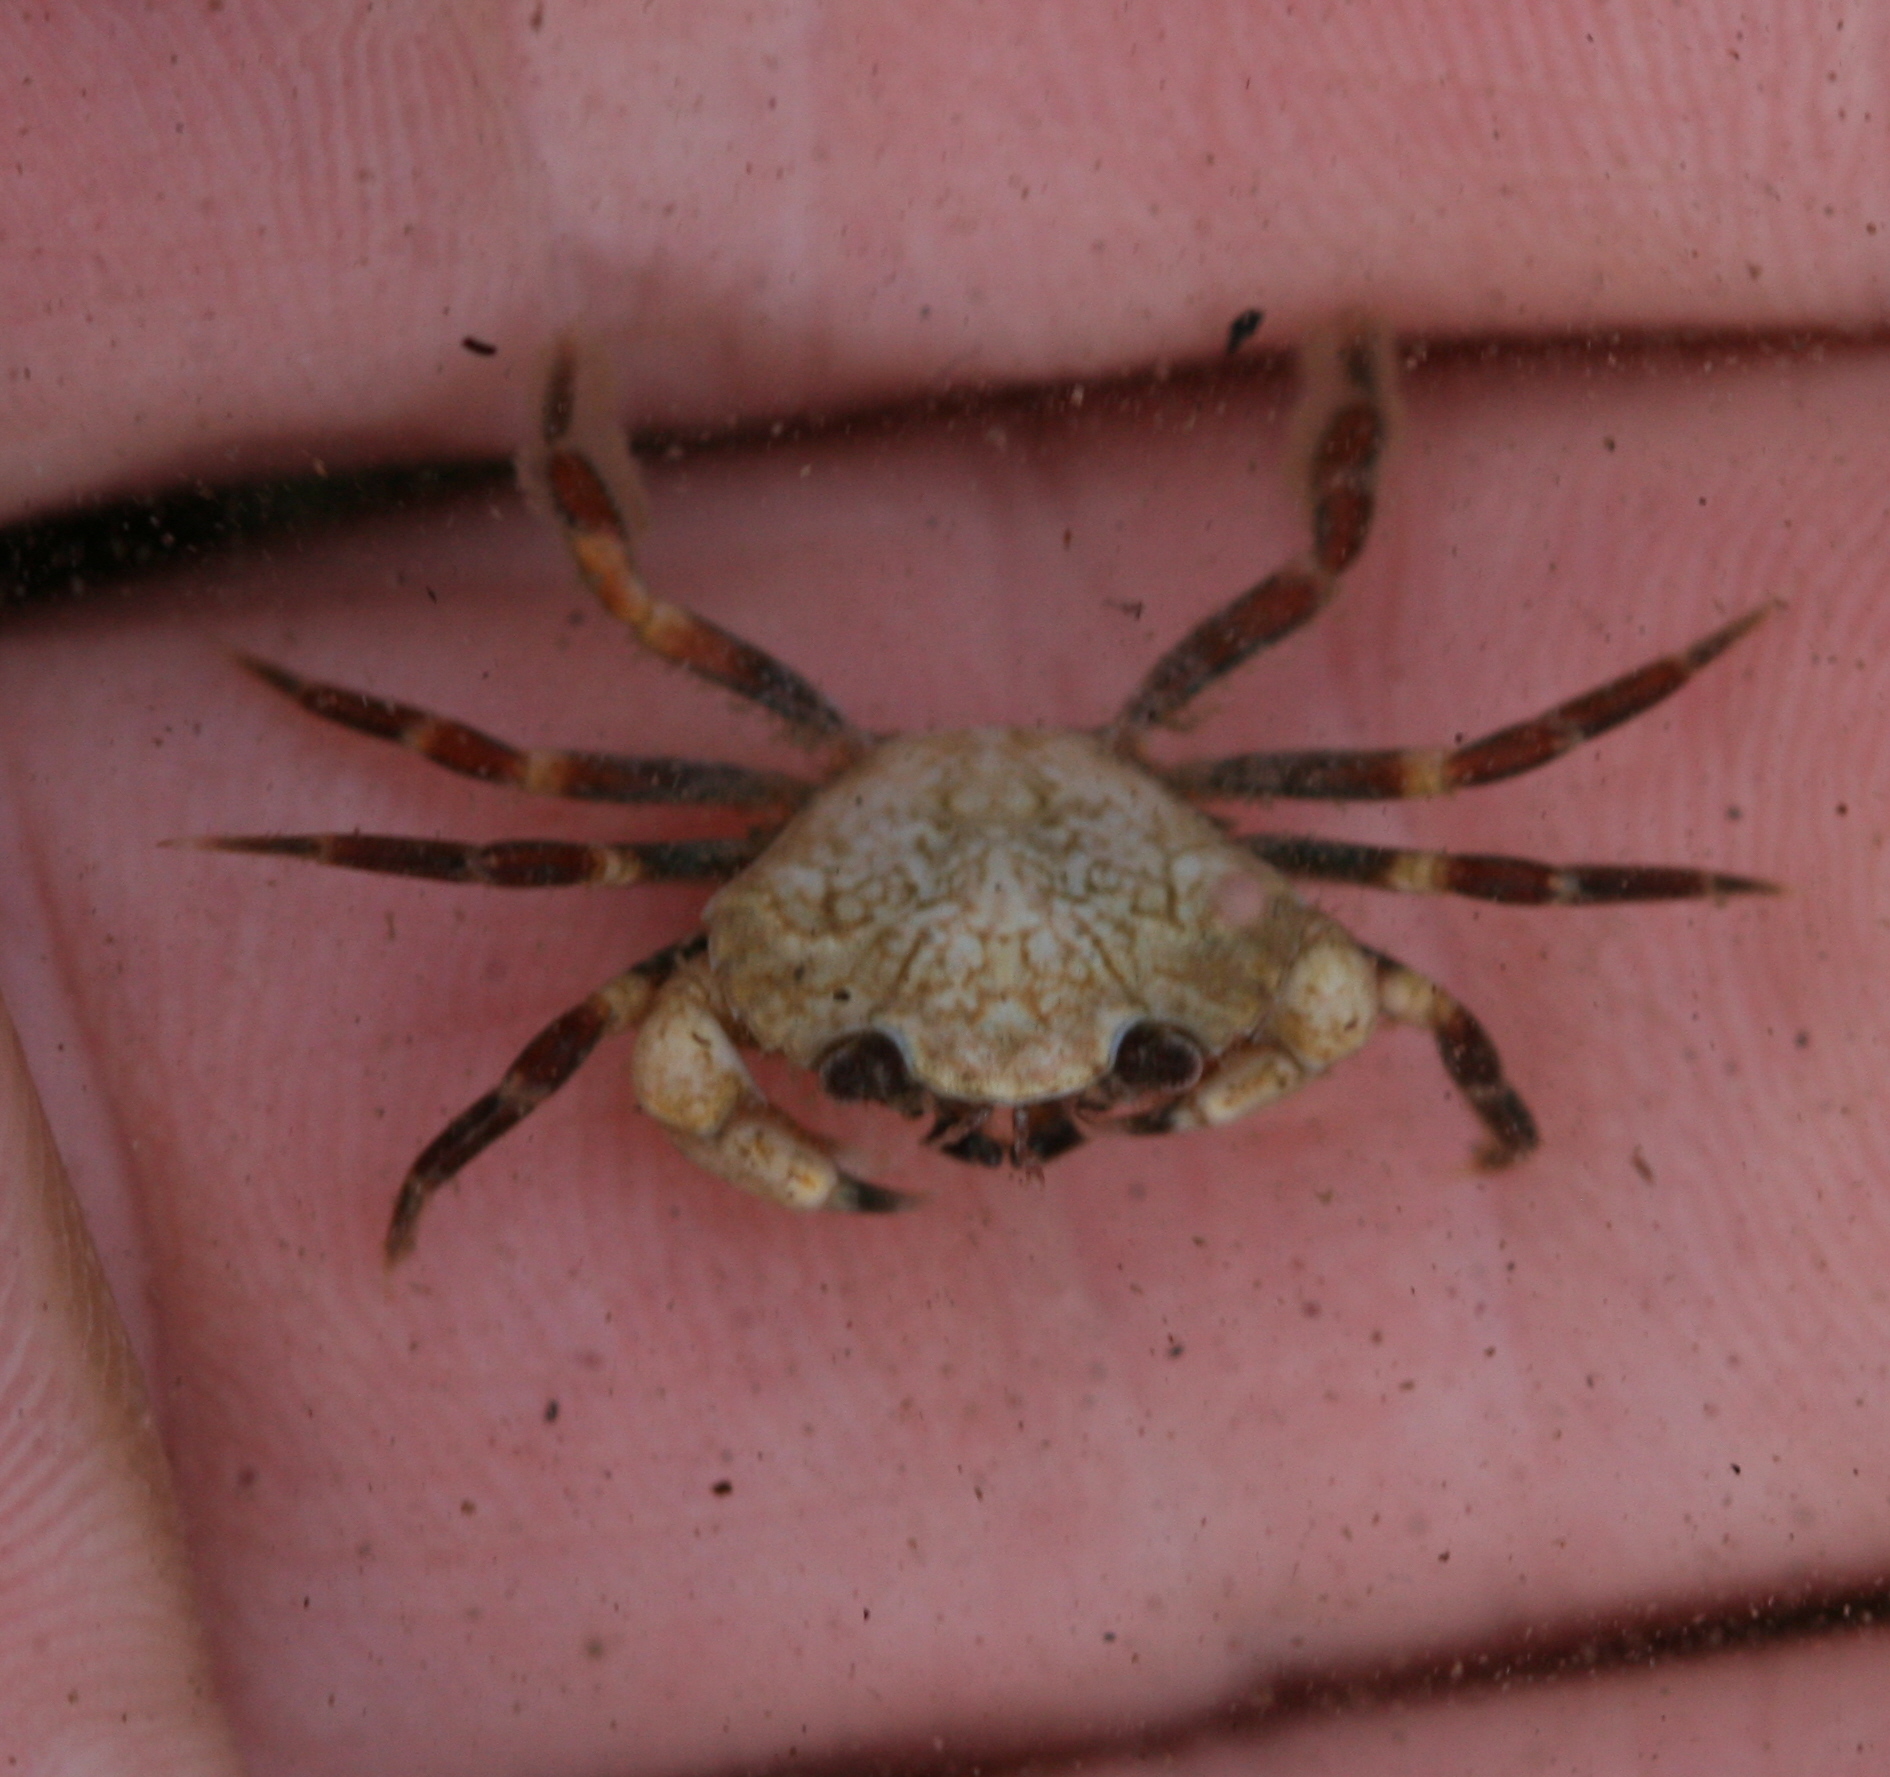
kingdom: Animalia
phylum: Arthropoda
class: Malacostraca
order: Decapoda
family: Carcinidae
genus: Carcinus
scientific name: Carcinus maenas
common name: European green crab
